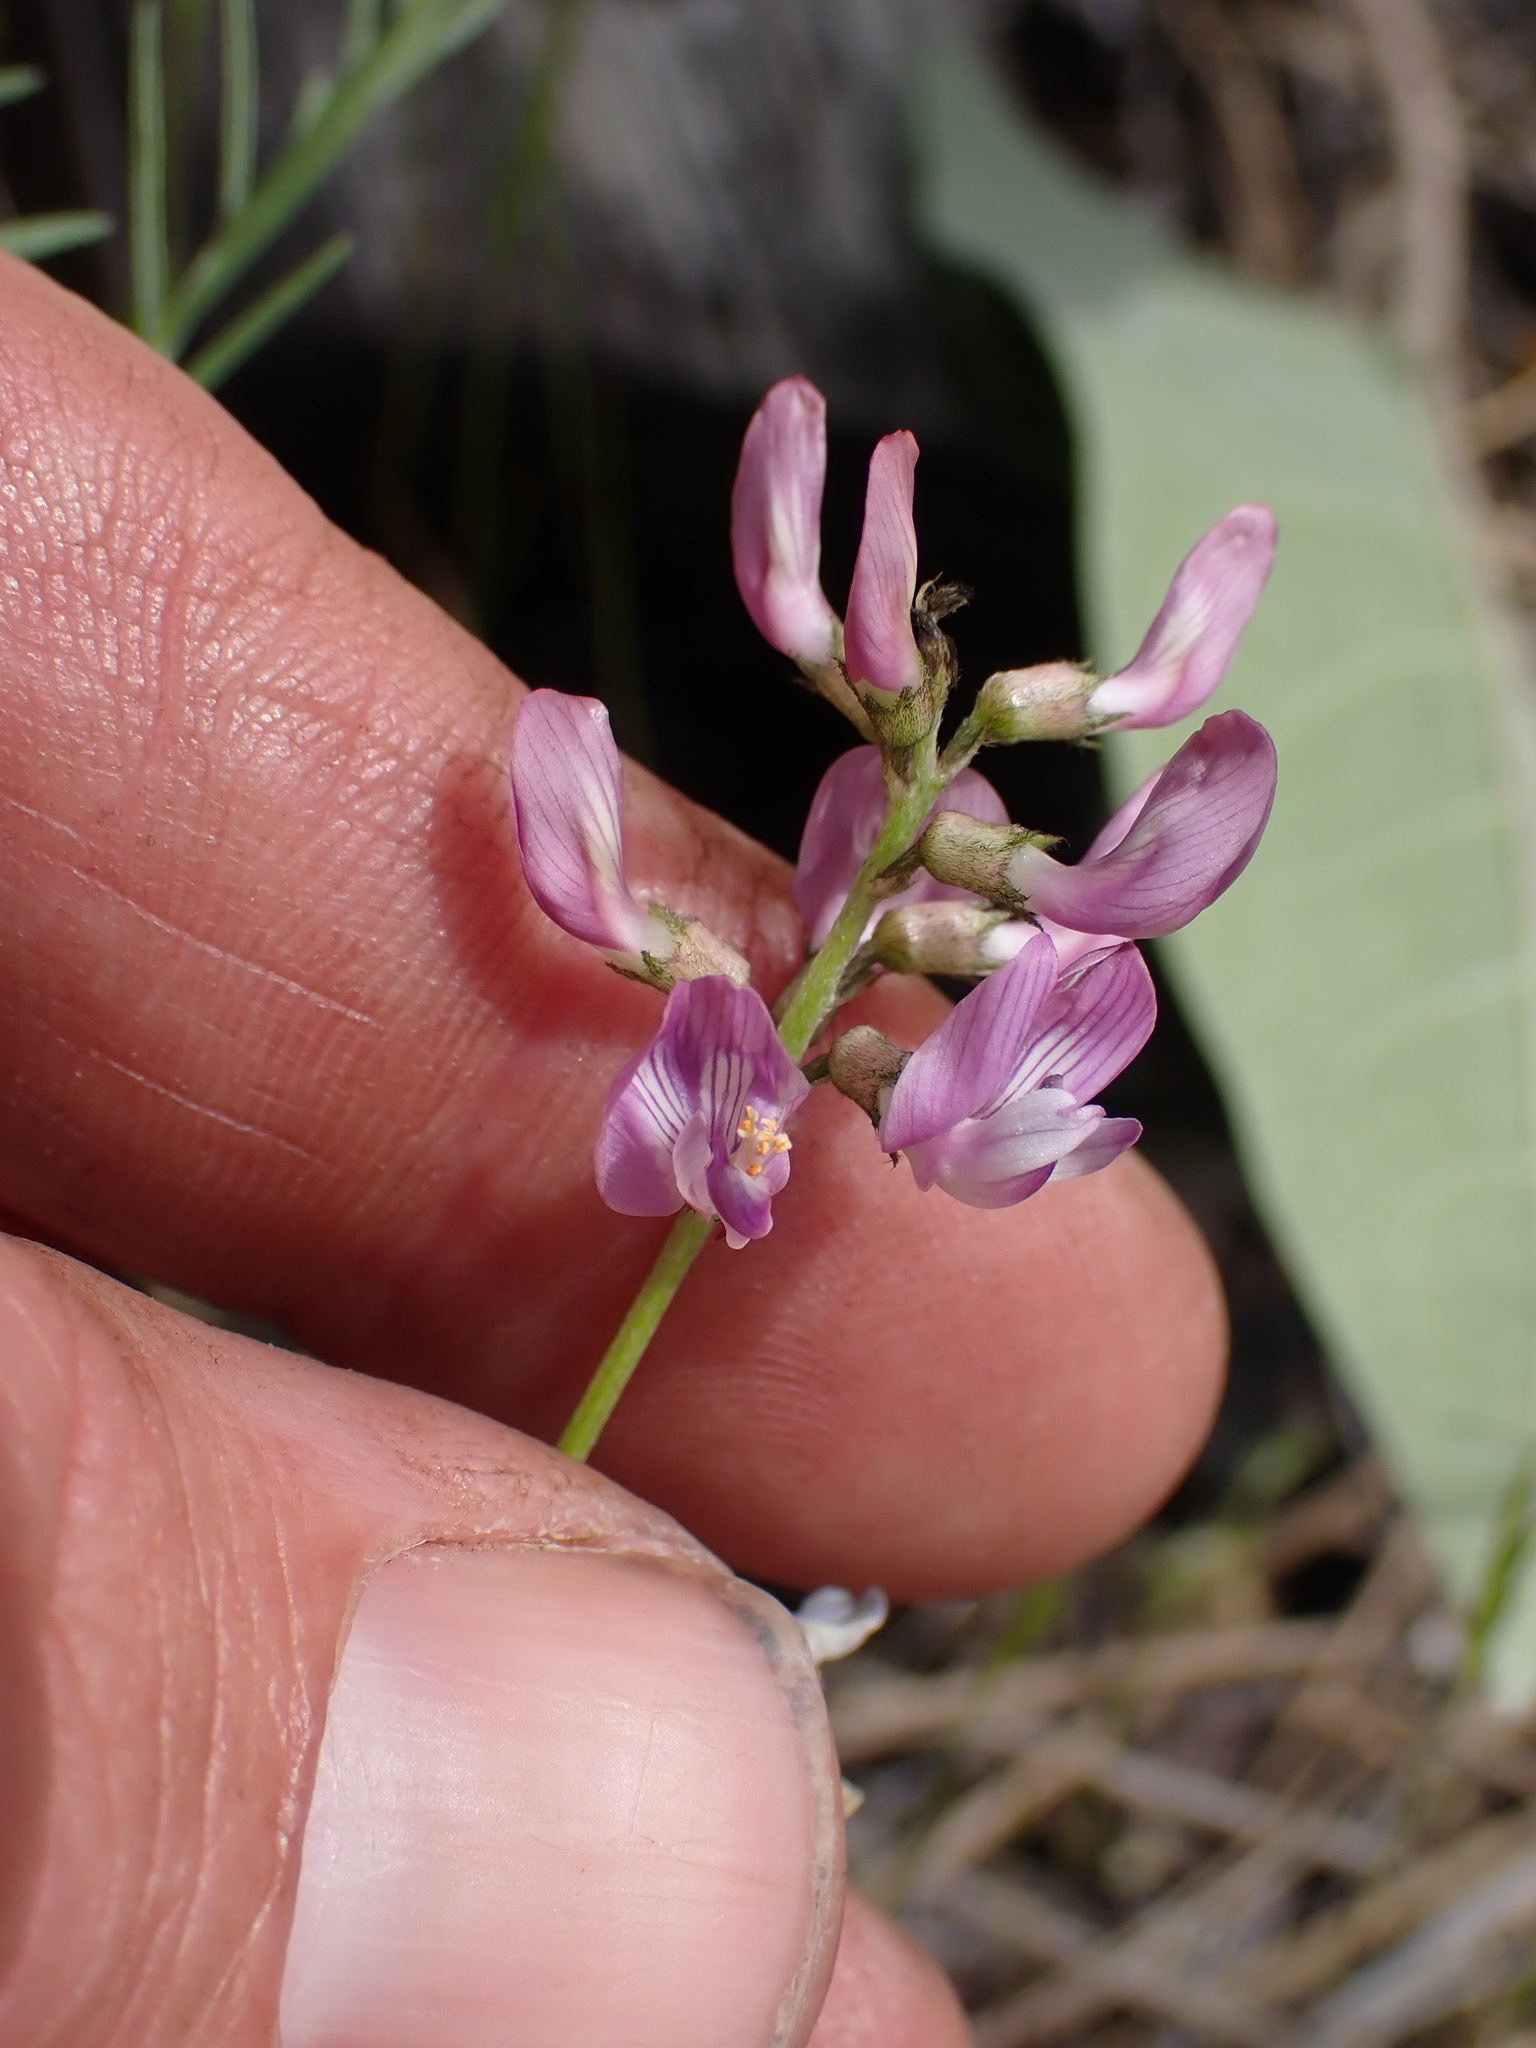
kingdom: Plantae
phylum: Tracheophyta
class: Magnoliopsida
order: Fabales
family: Fabaceae
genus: Astragalus
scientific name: Astragalus miser
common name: Timber milkvetch
